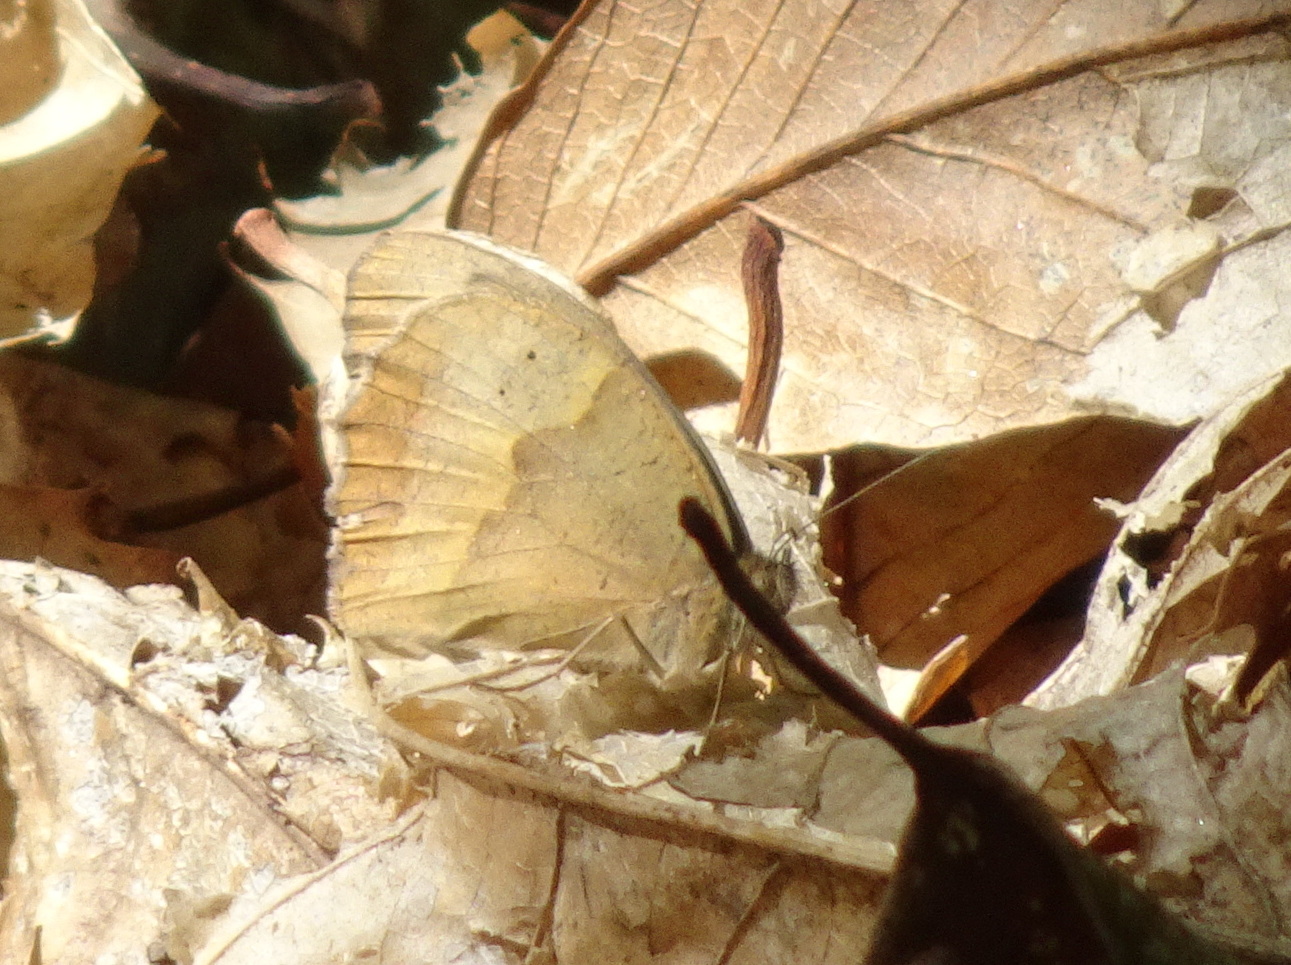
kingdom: Animalia
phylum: Arthropoda
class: Insecta
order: Lepidoptera
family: Nymphalidae
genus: Maniola
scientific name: Maniola jurtina
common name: Meadow brown
